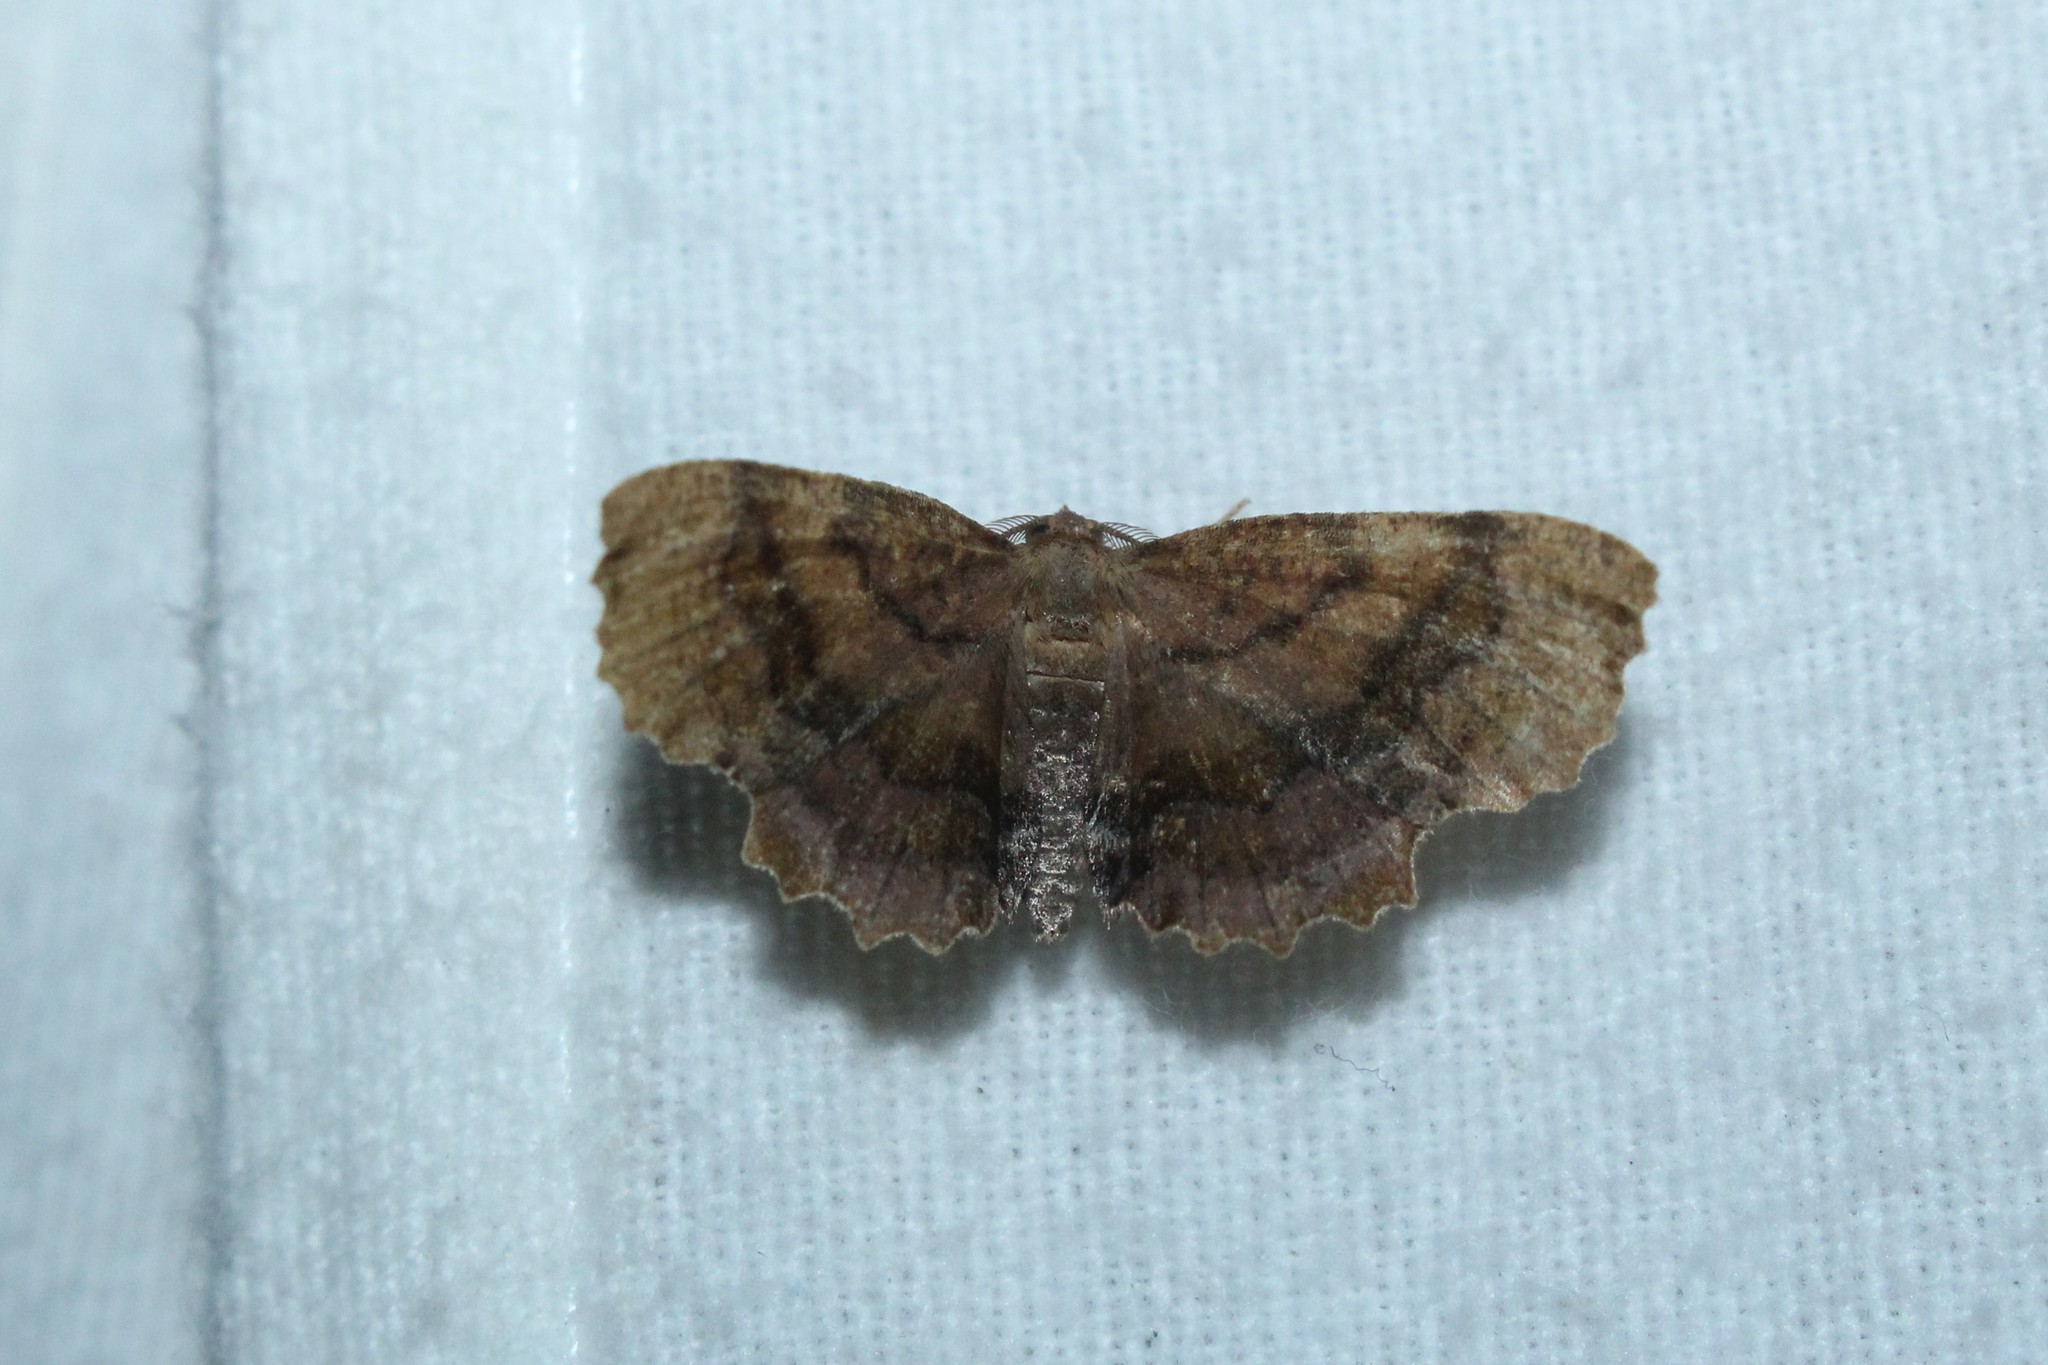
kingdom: Animalia
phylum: Arthropoda
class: Insecta
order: Lepidoptera
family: Geometridae
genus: Cepphis
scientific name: Cepphis armataria
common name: Scallop moth
